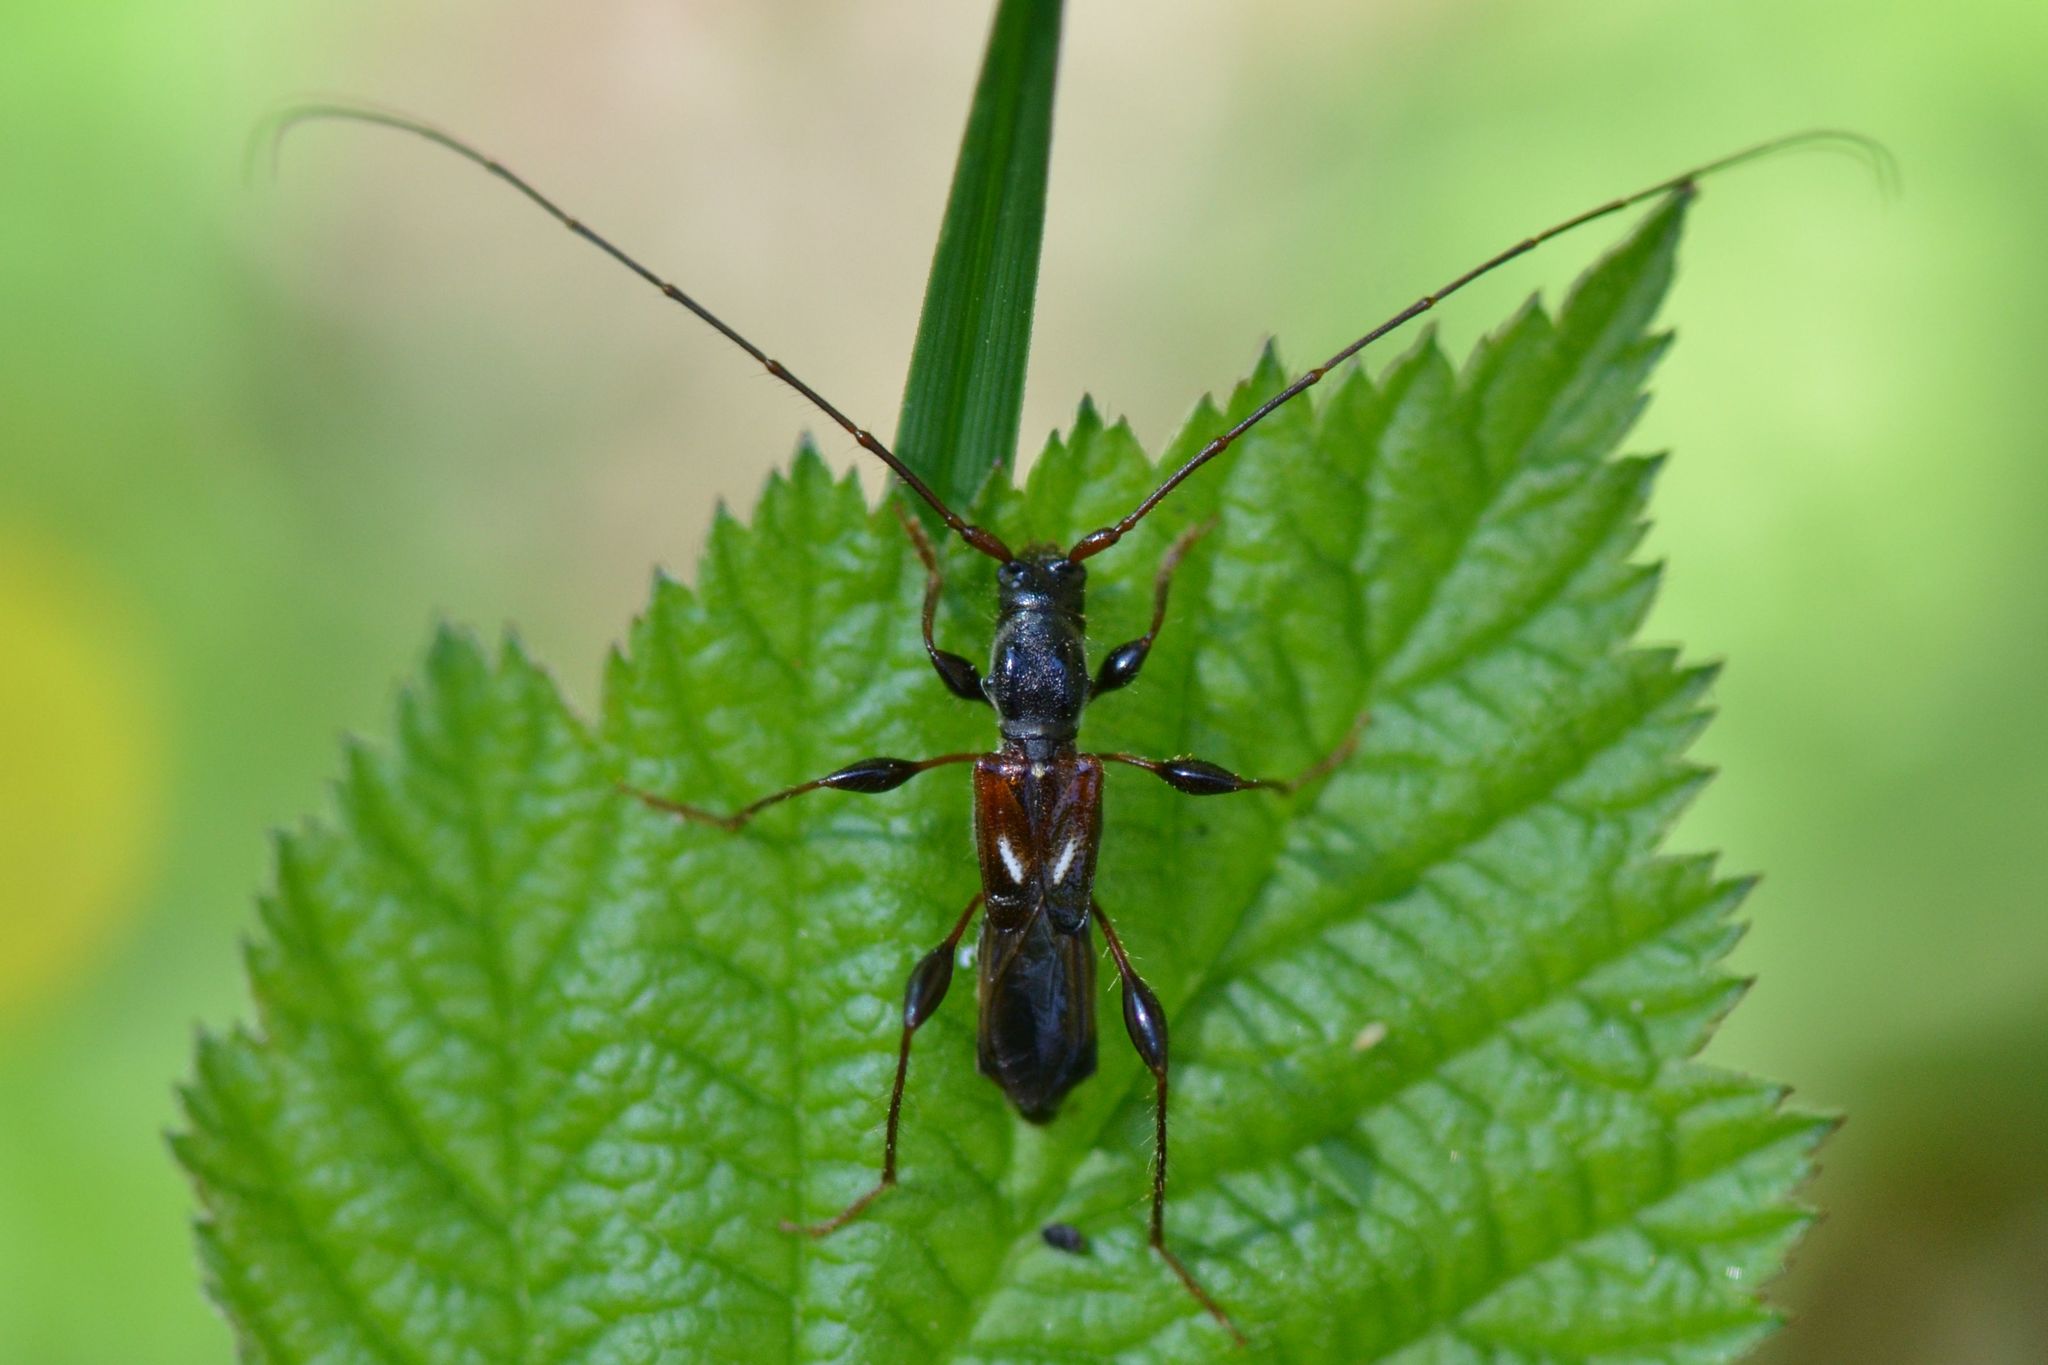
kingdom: Animalia
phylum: Arthropoda
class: Insecta
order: Coleoptera
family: Cerambycidae
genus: Molorchus
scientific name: Molorchus minor
